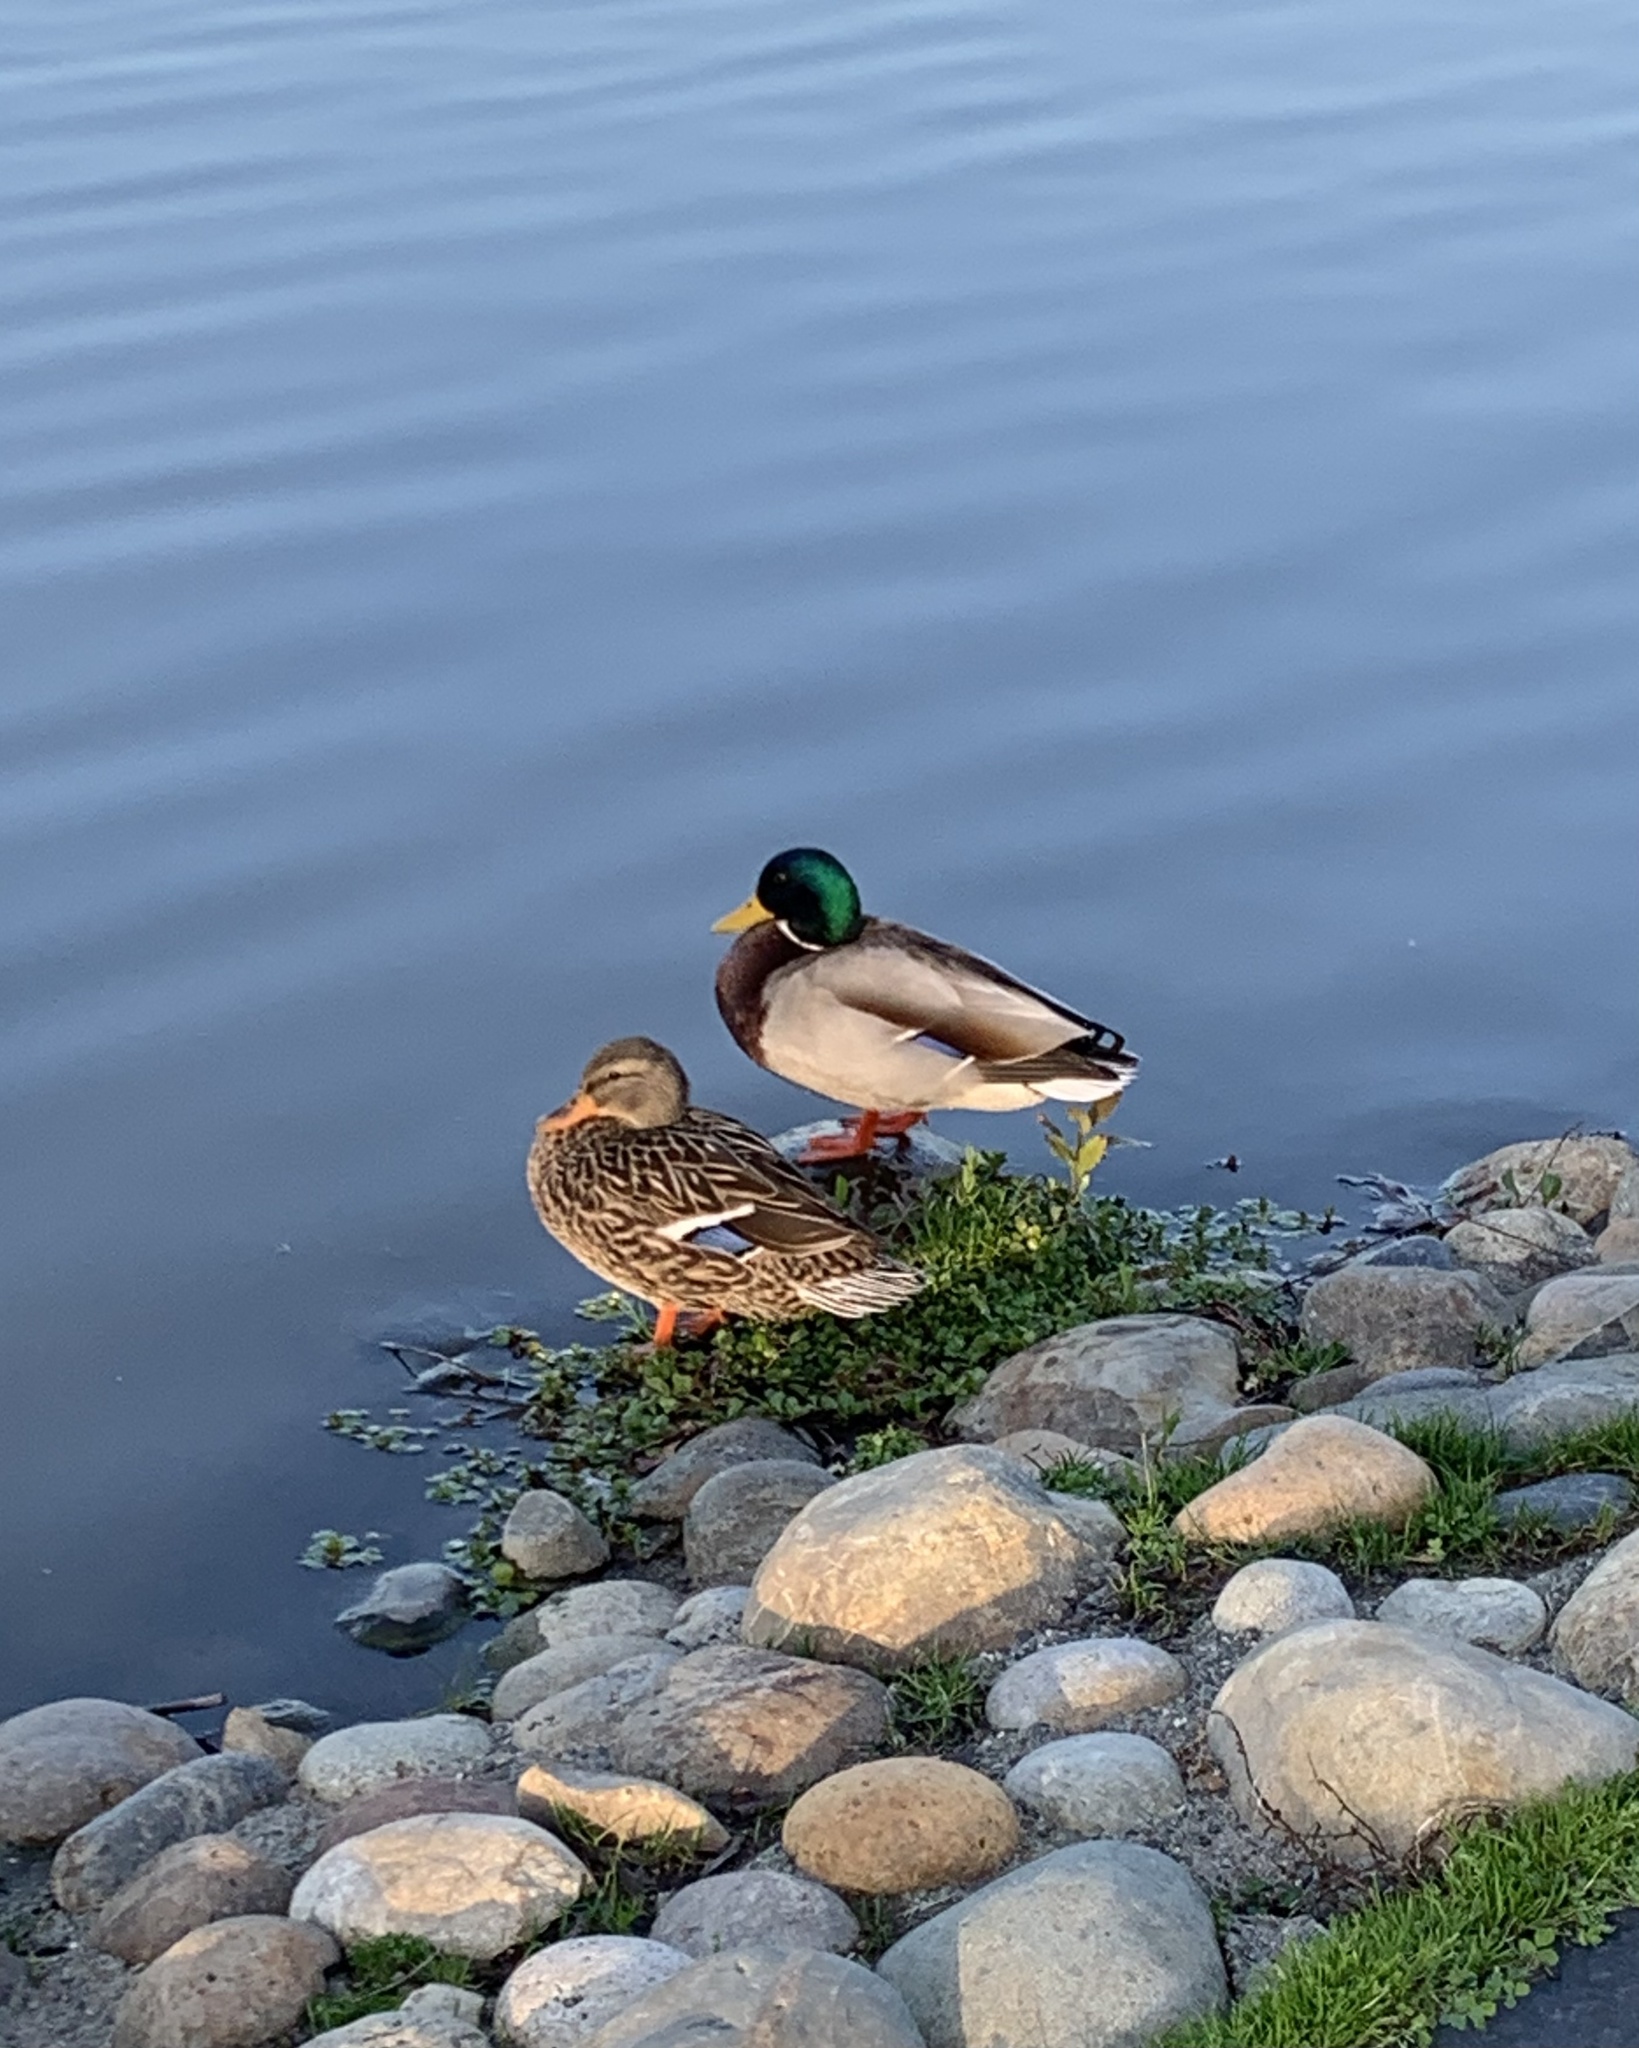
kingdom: Animalia
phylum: Chordata
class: Aves
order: Anseriformes
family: Anatidae
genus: Anas
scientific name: Anas platyrhynchos
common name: Mallard
